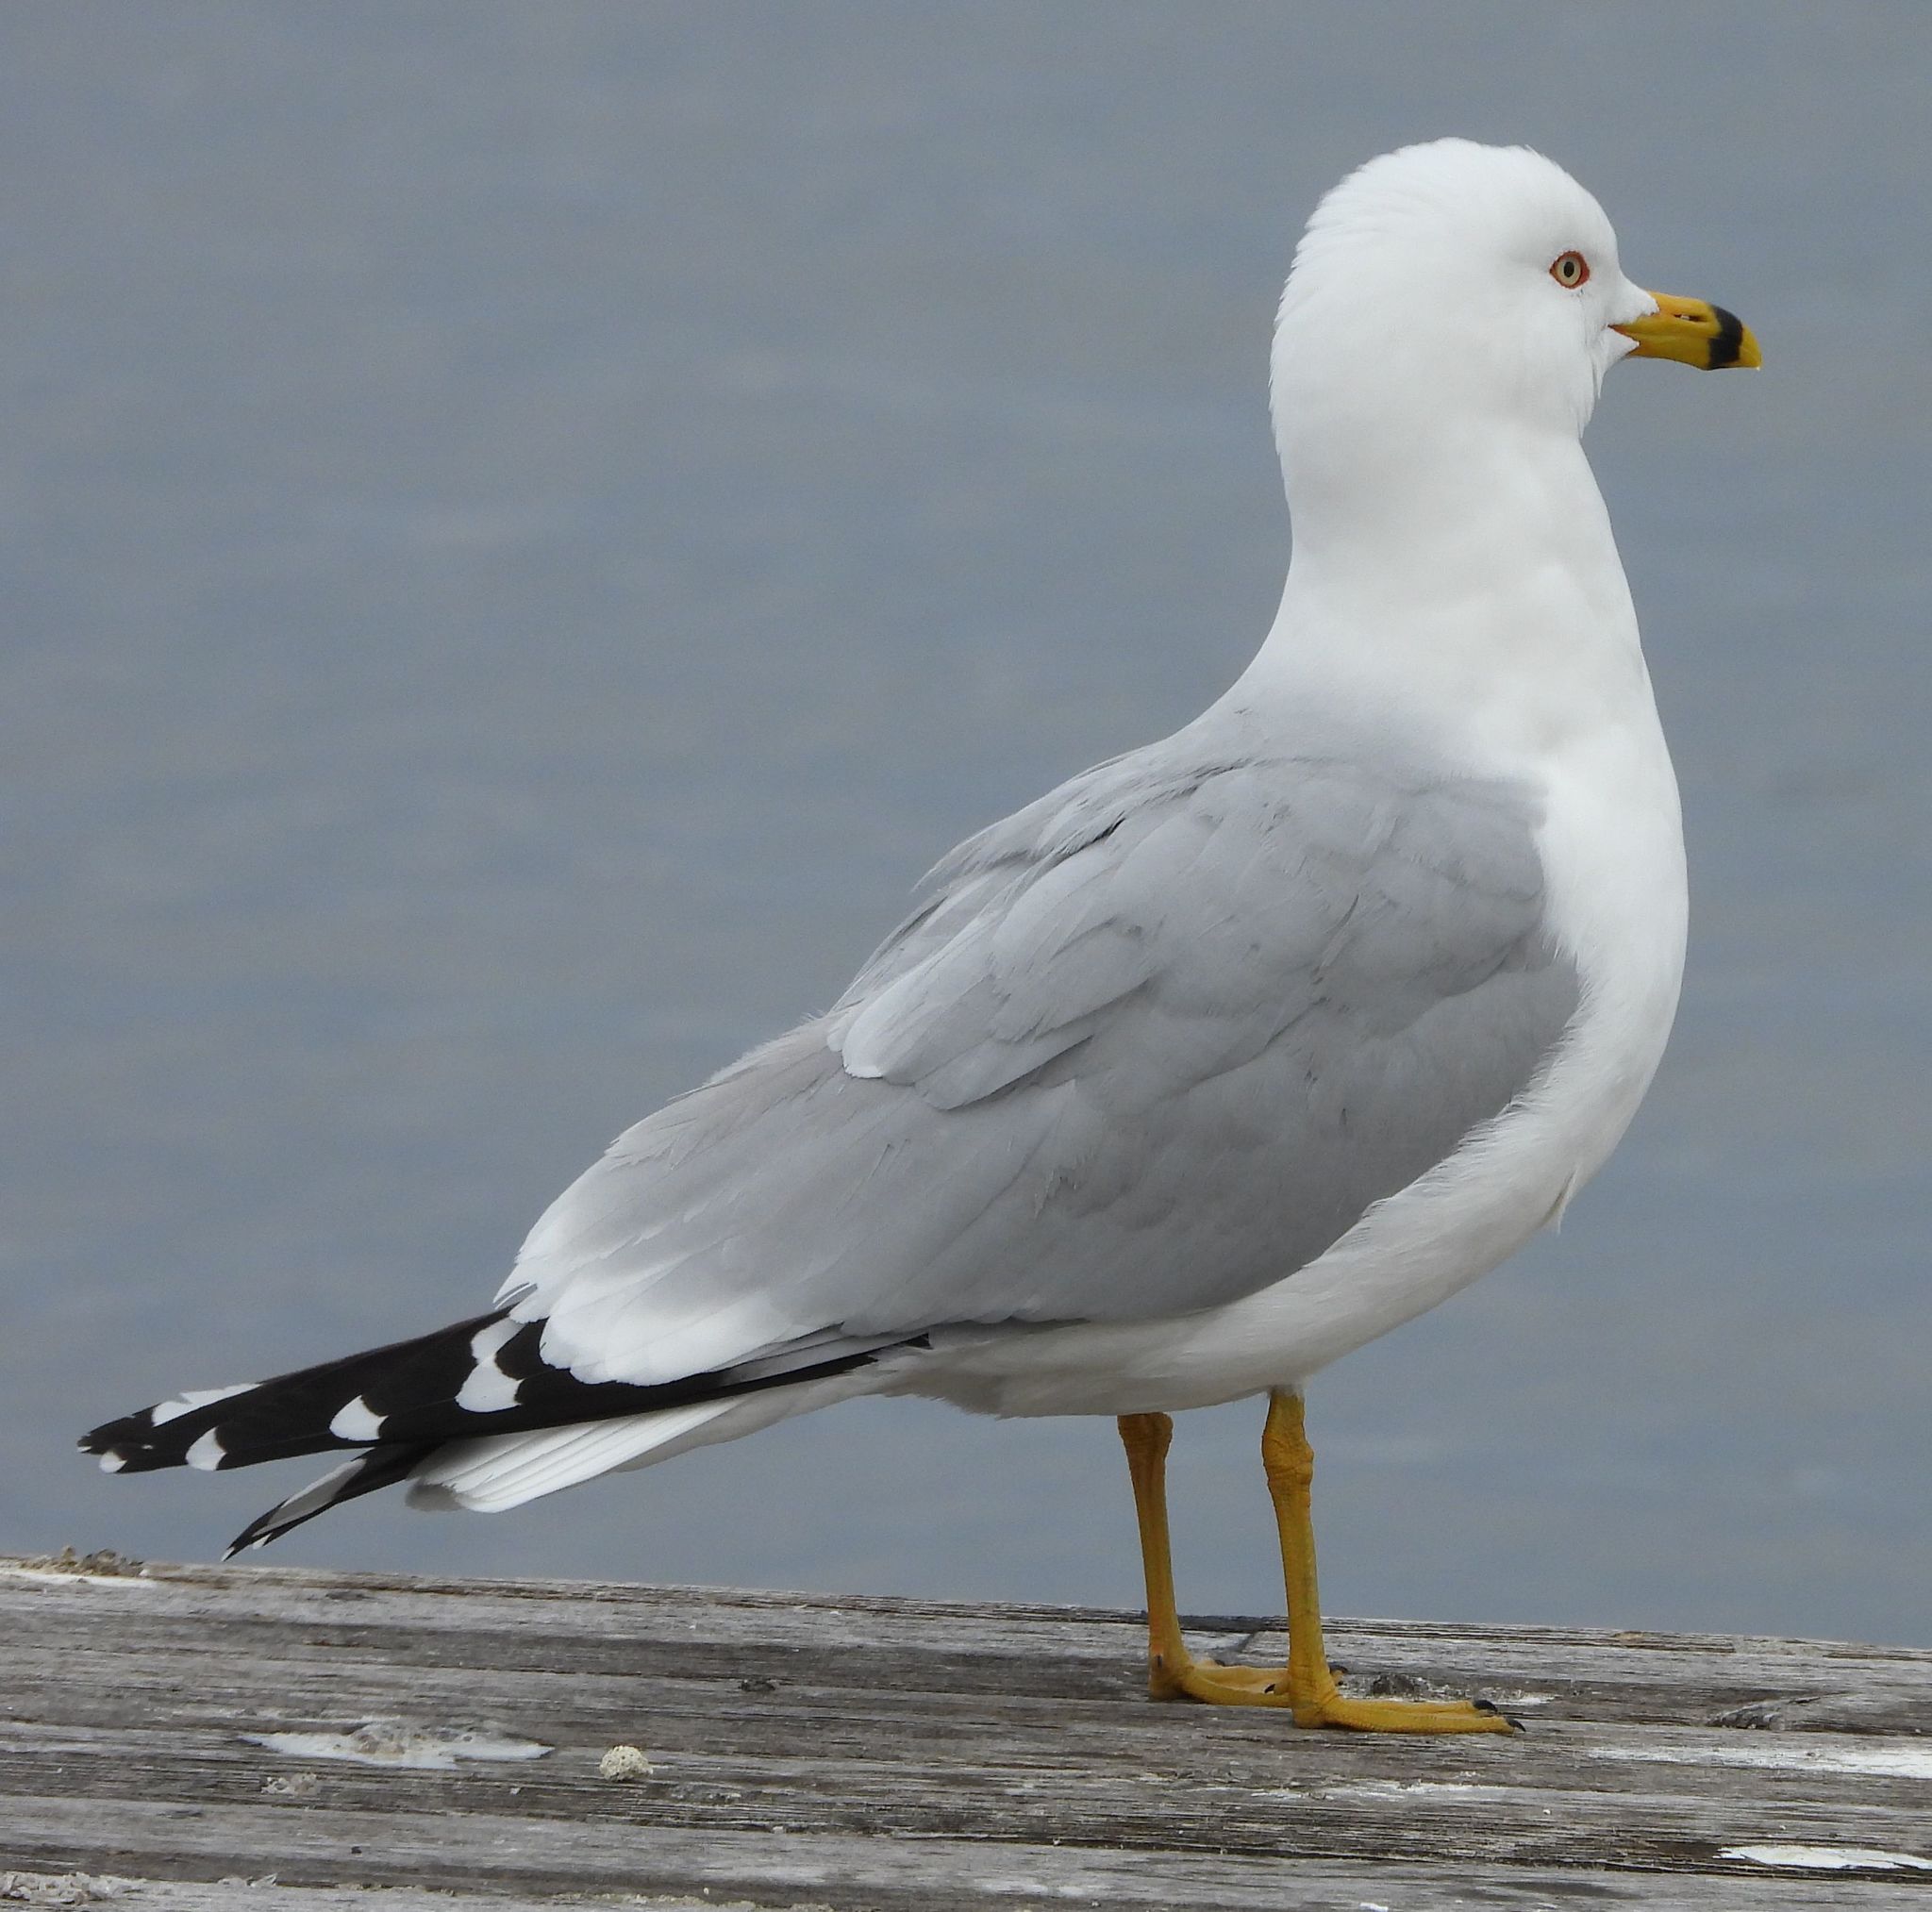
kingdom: Animalia
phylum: Chordata
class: Aves
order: Charadriiformes
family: Laridae
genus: Larus
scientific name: Larus delawarensis
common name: Ring-billed gull
